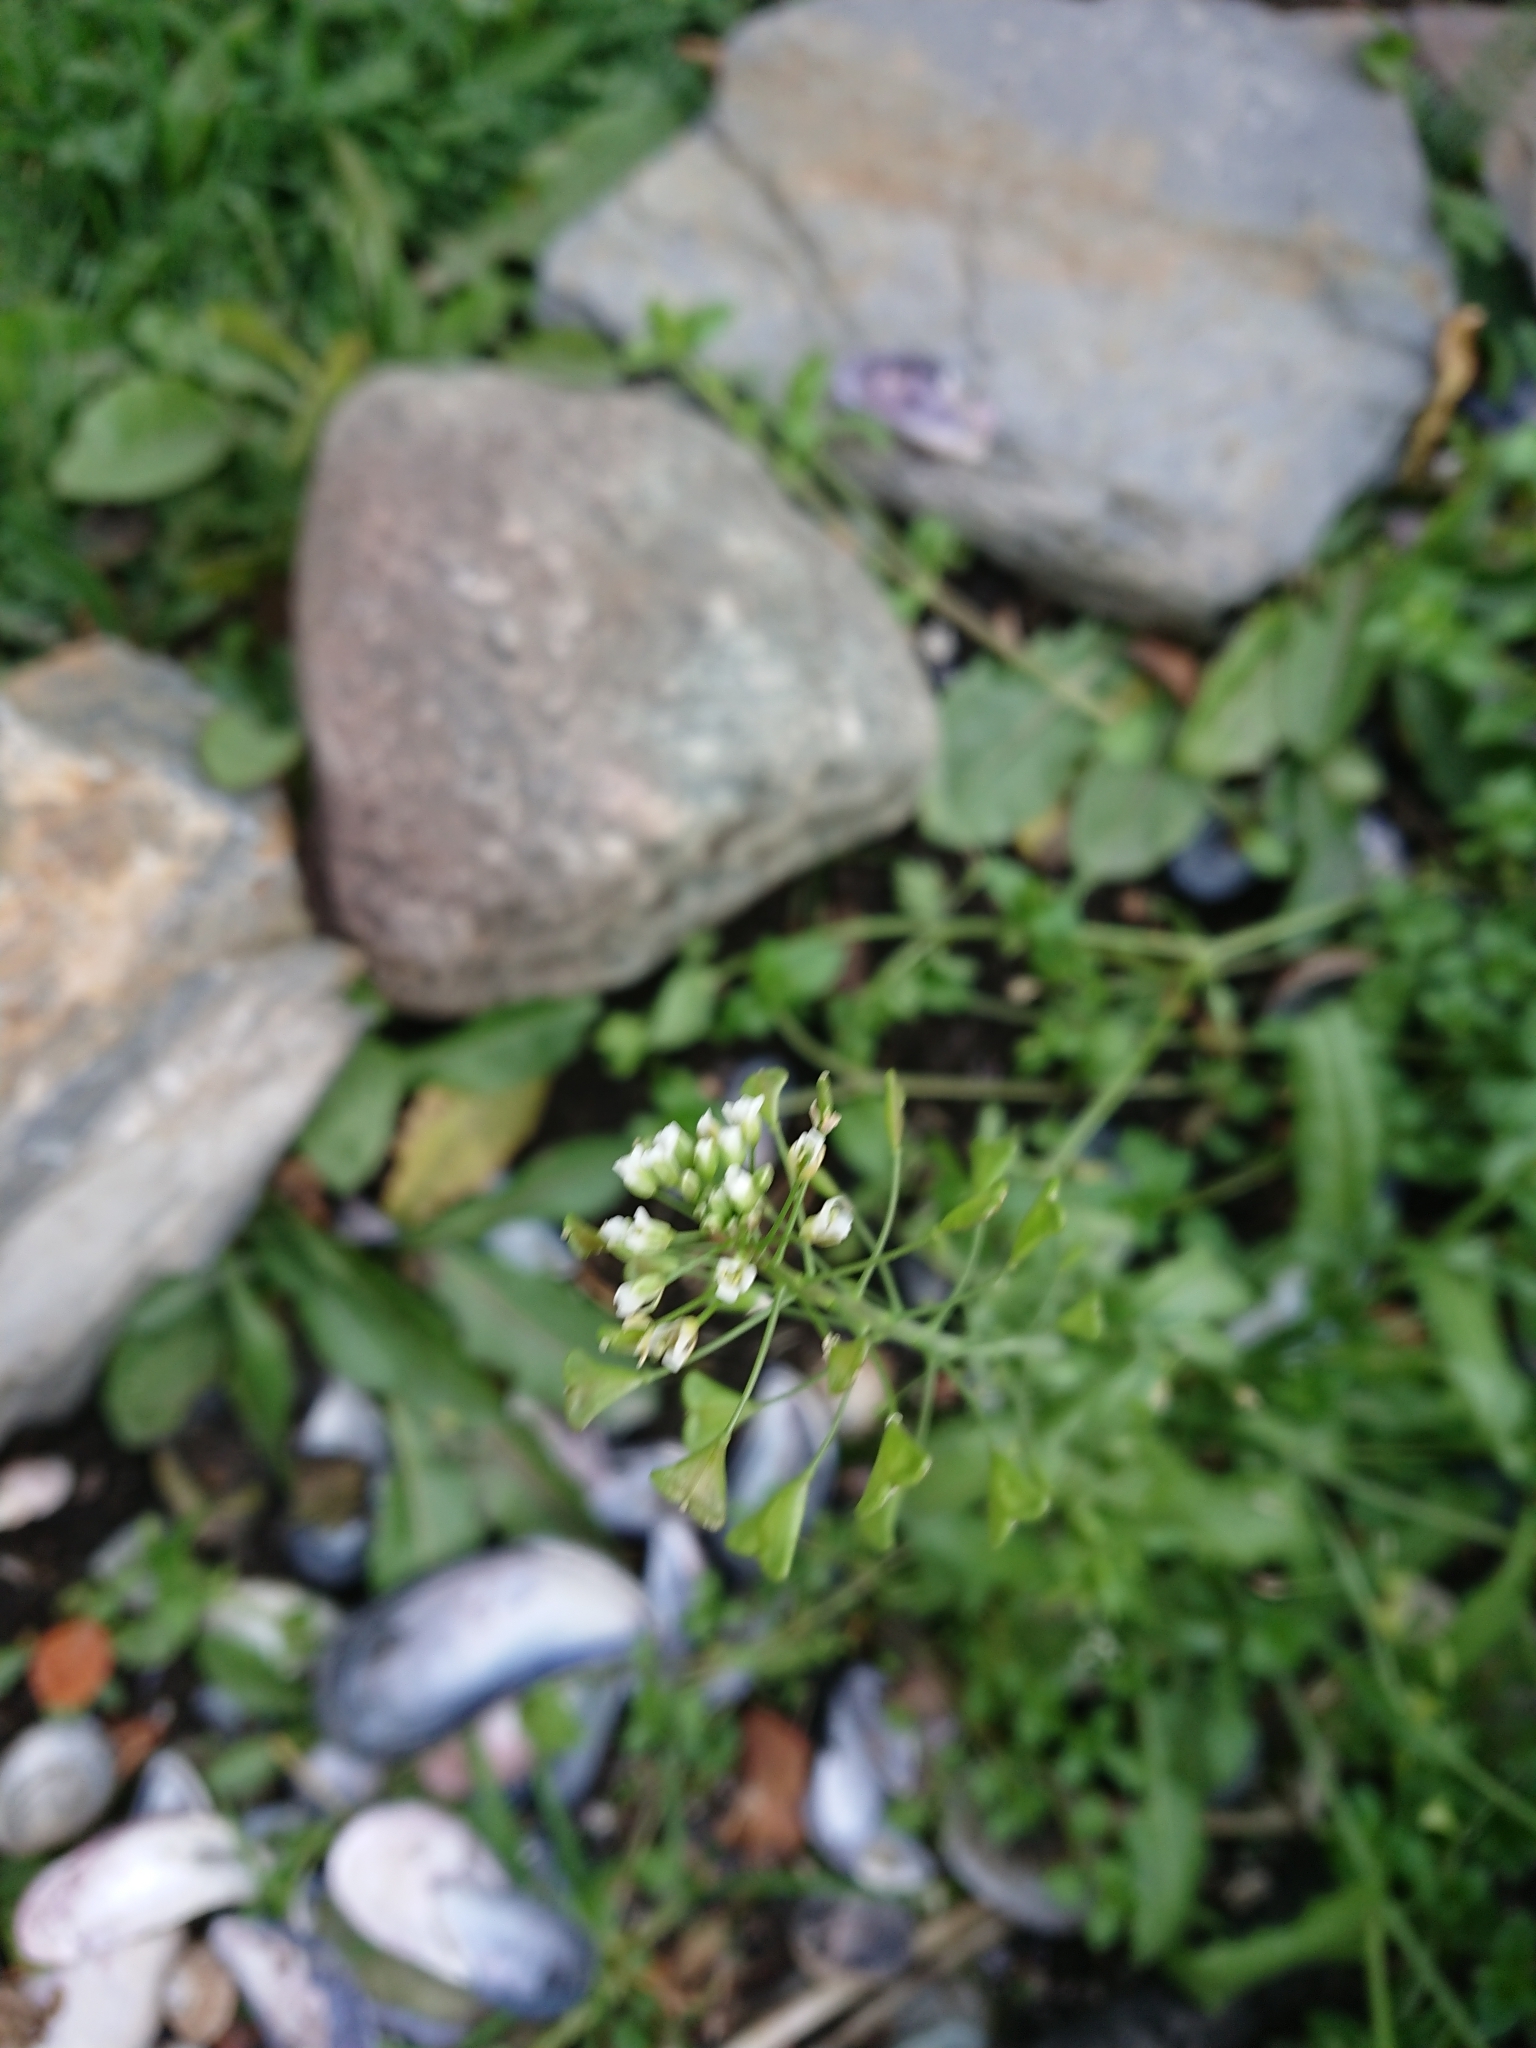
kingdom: Plantae
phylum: Tracheophyta
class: Magnoliopsida
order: Brassicales
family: Brassicaceae
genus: Capsella
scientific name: Capsella bursa-pastoris
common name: Shepherd's purse
